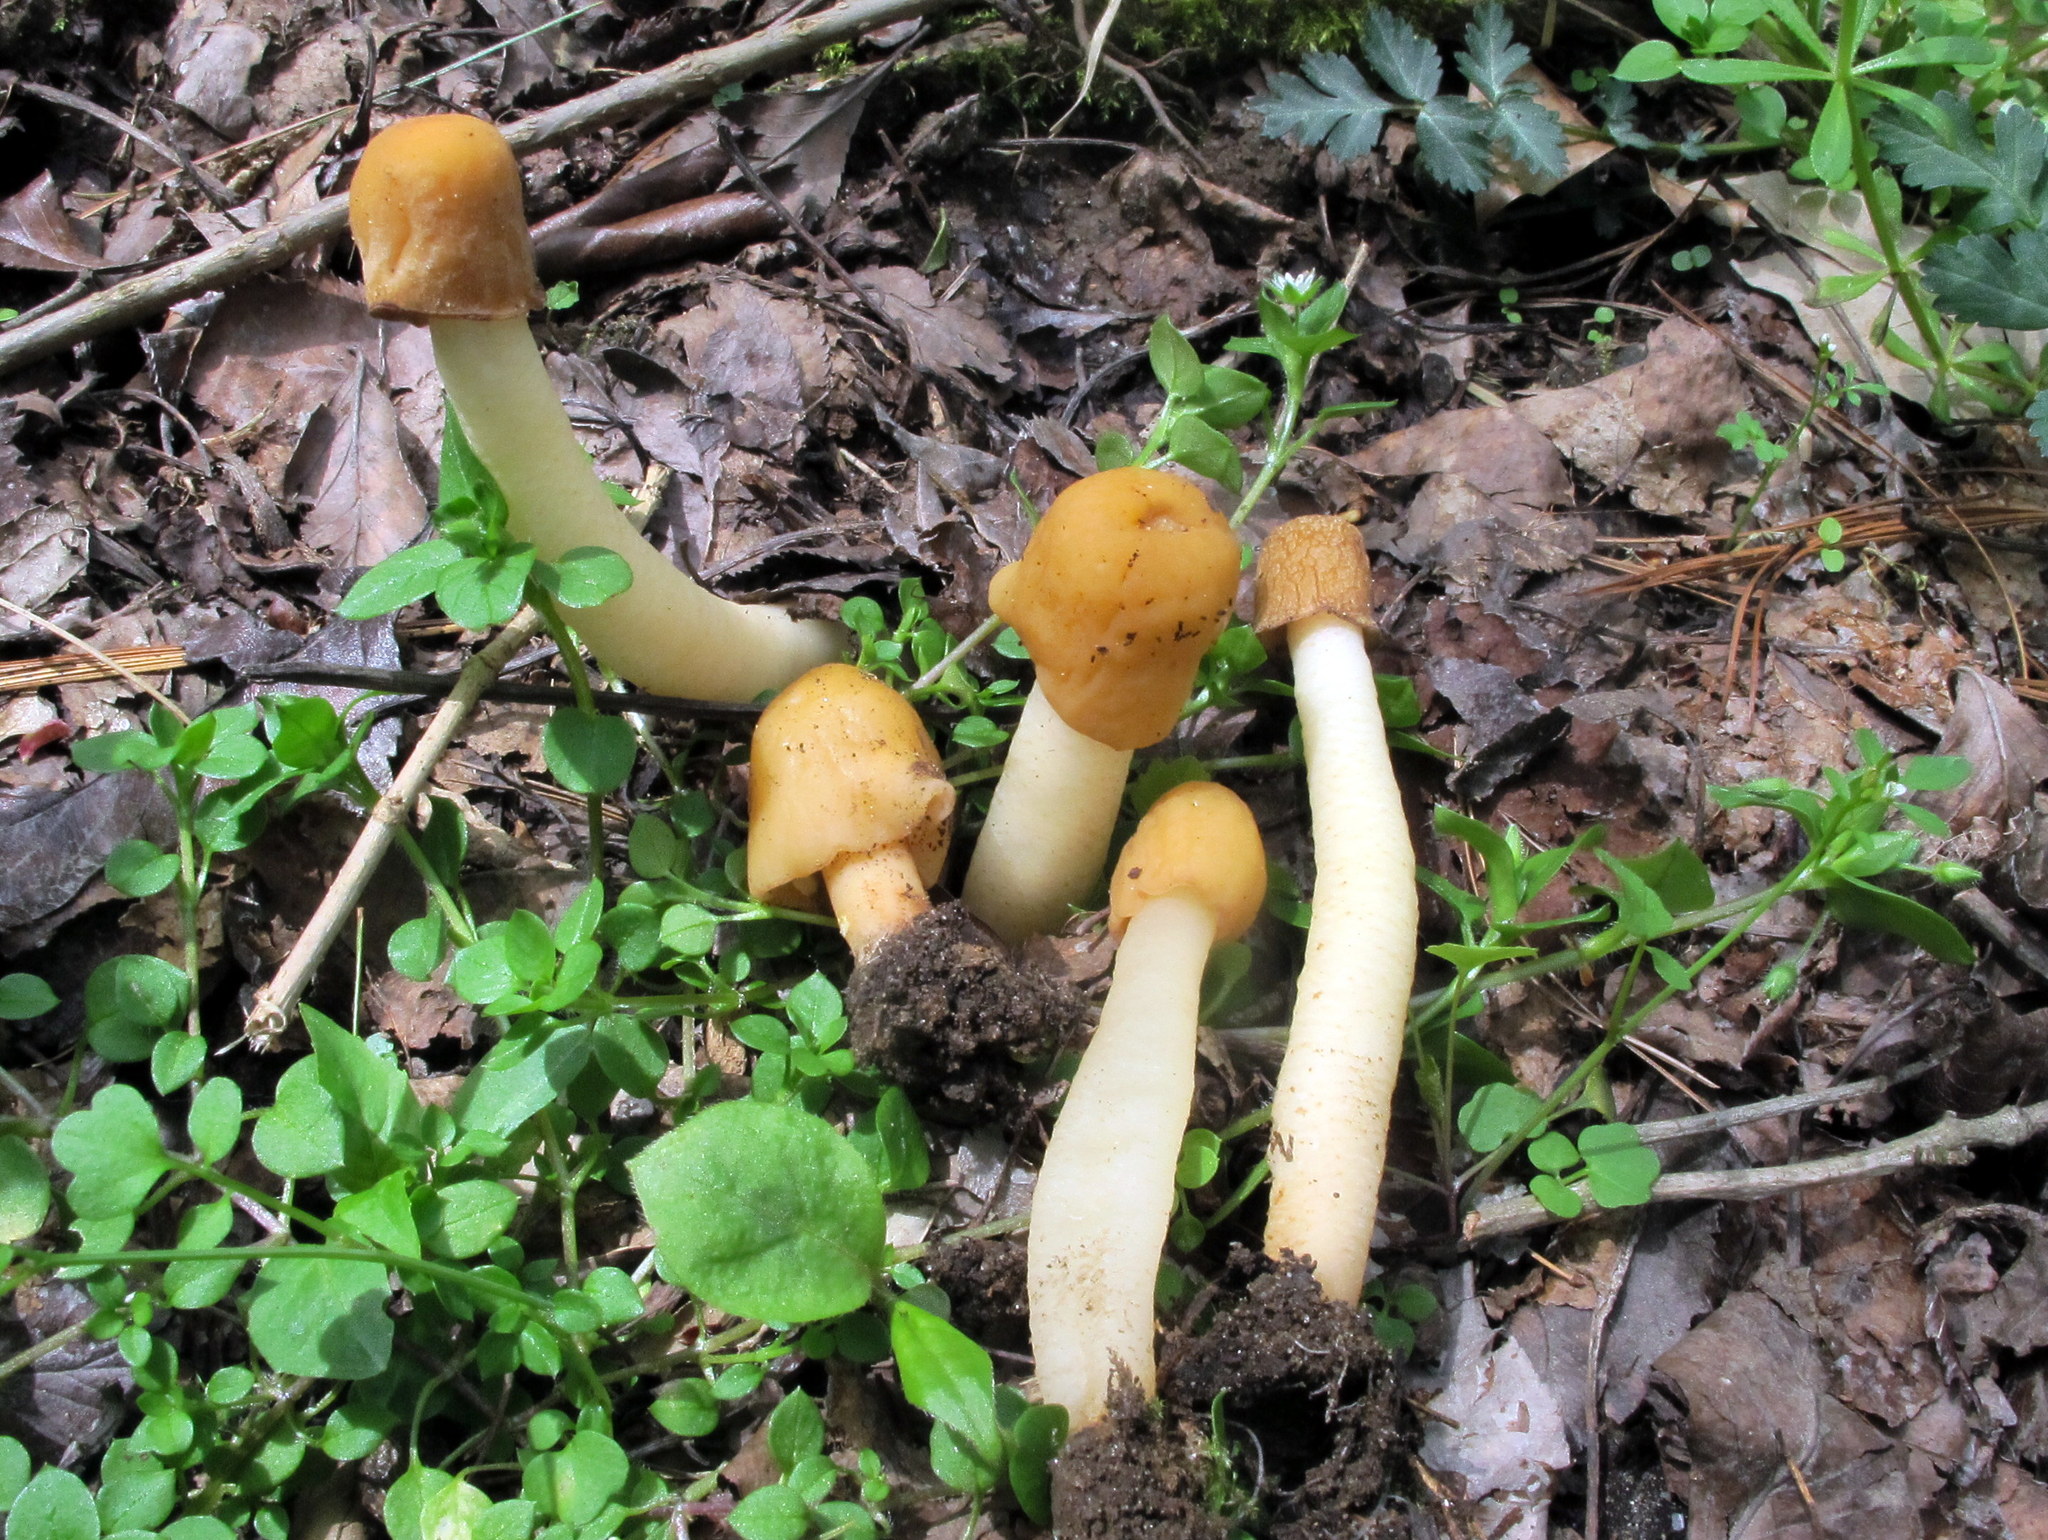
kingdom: Fungi
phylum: Ascomycota
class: Pezizomycetes
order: Pezizales
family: Morchellaceae
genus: Verpa
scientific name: Verpa conica
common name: Thimble morel
